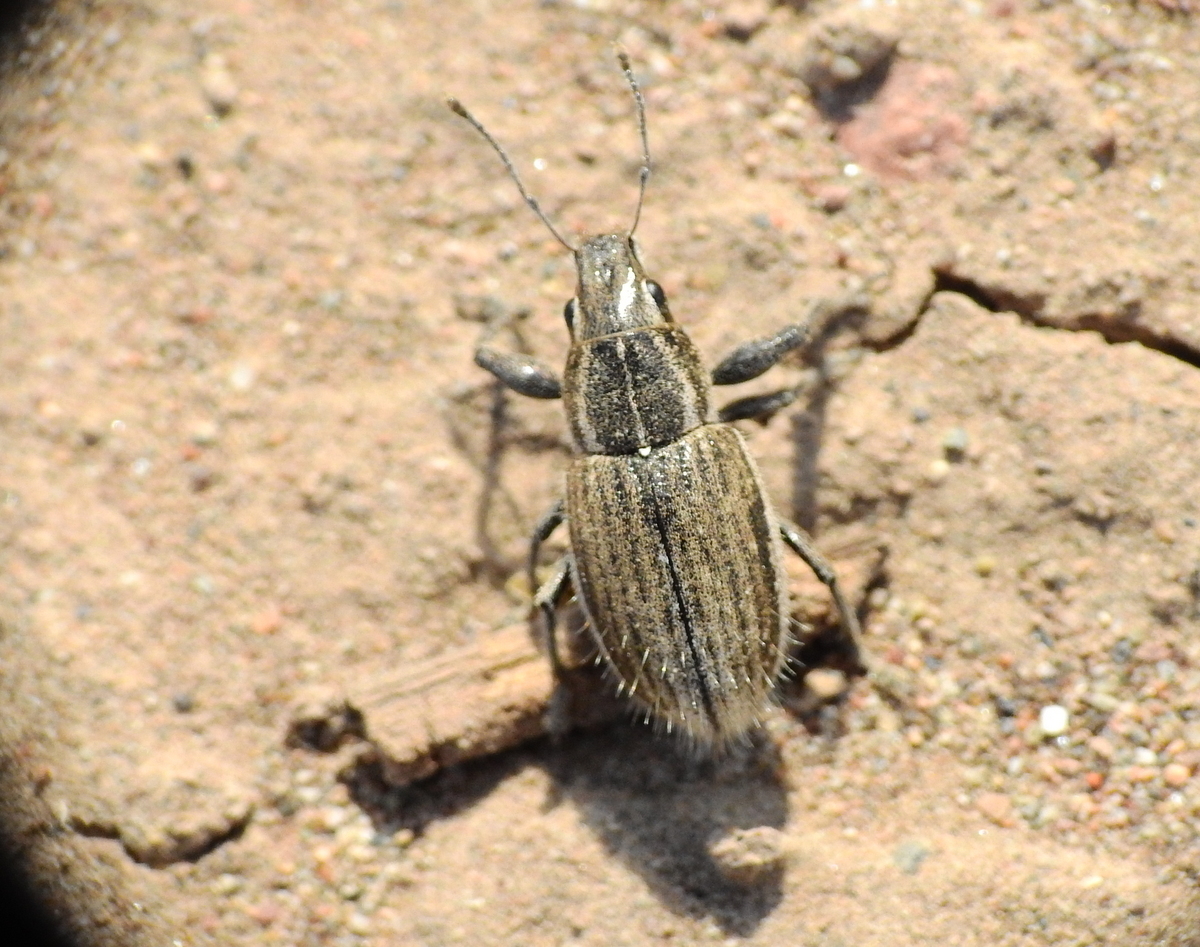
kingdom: Animalia
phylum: Arthropoda
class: Insecta
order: Coleoptera
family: Curculionidae
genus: Naupactus
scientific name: Naupactus leucoloma
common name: Whitefringed beetle
